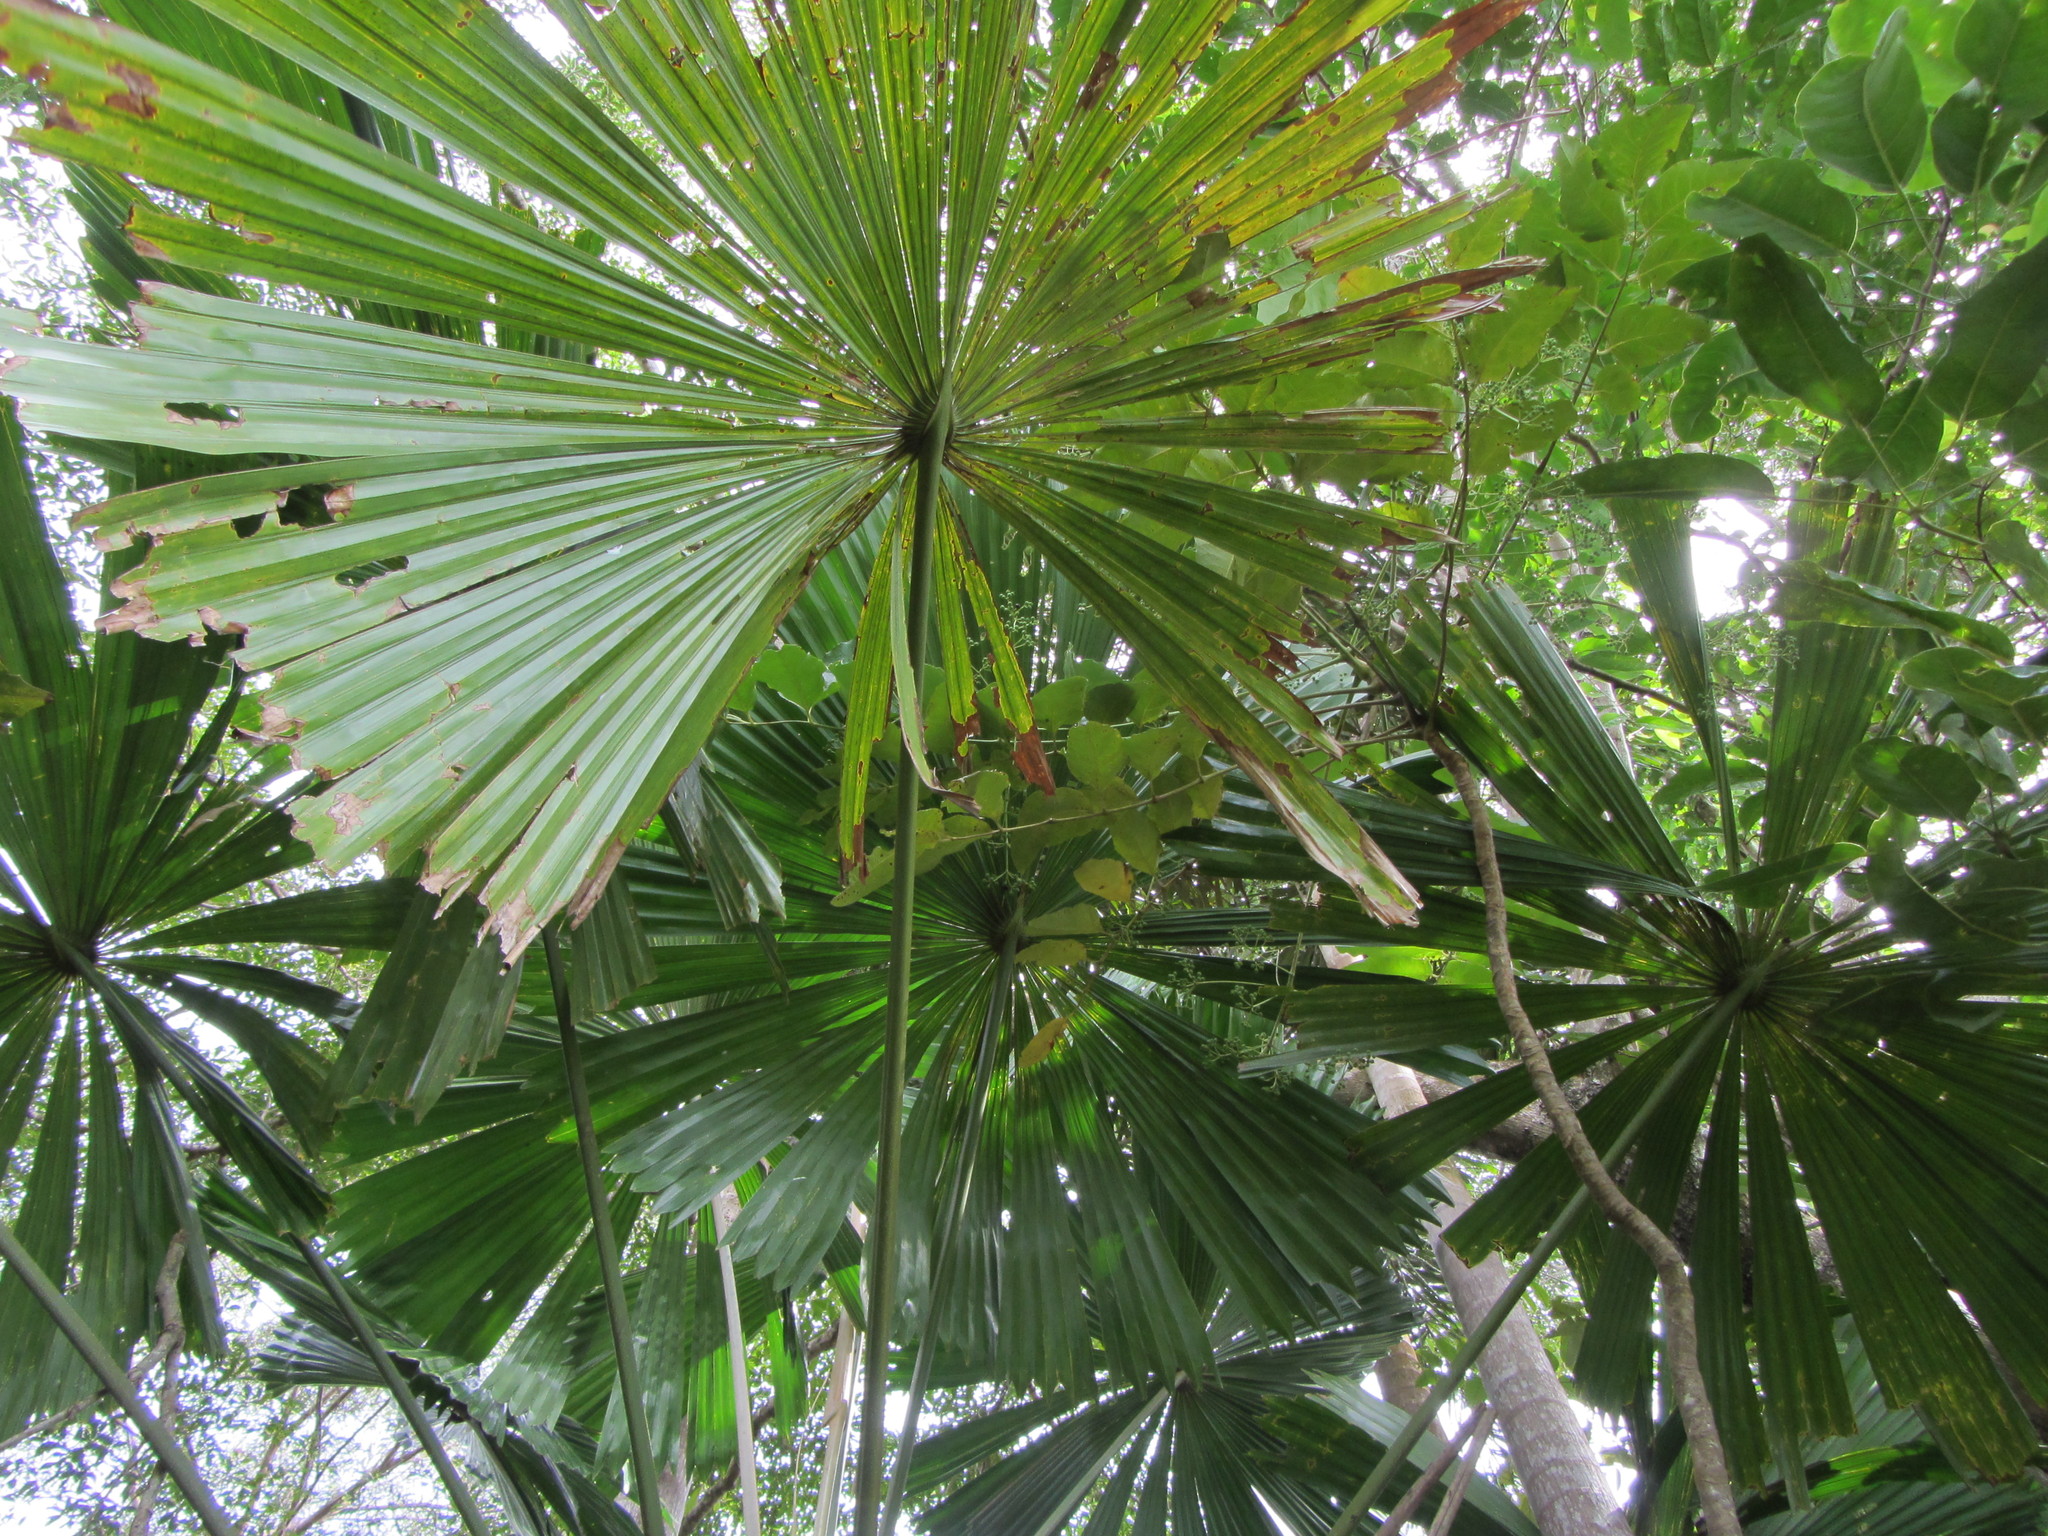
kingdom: Plantae
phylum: Tracheophyta
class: Liliopsida
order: Arecales
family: Arecaceae
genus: Licuala
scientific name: Licuala ramsayi
